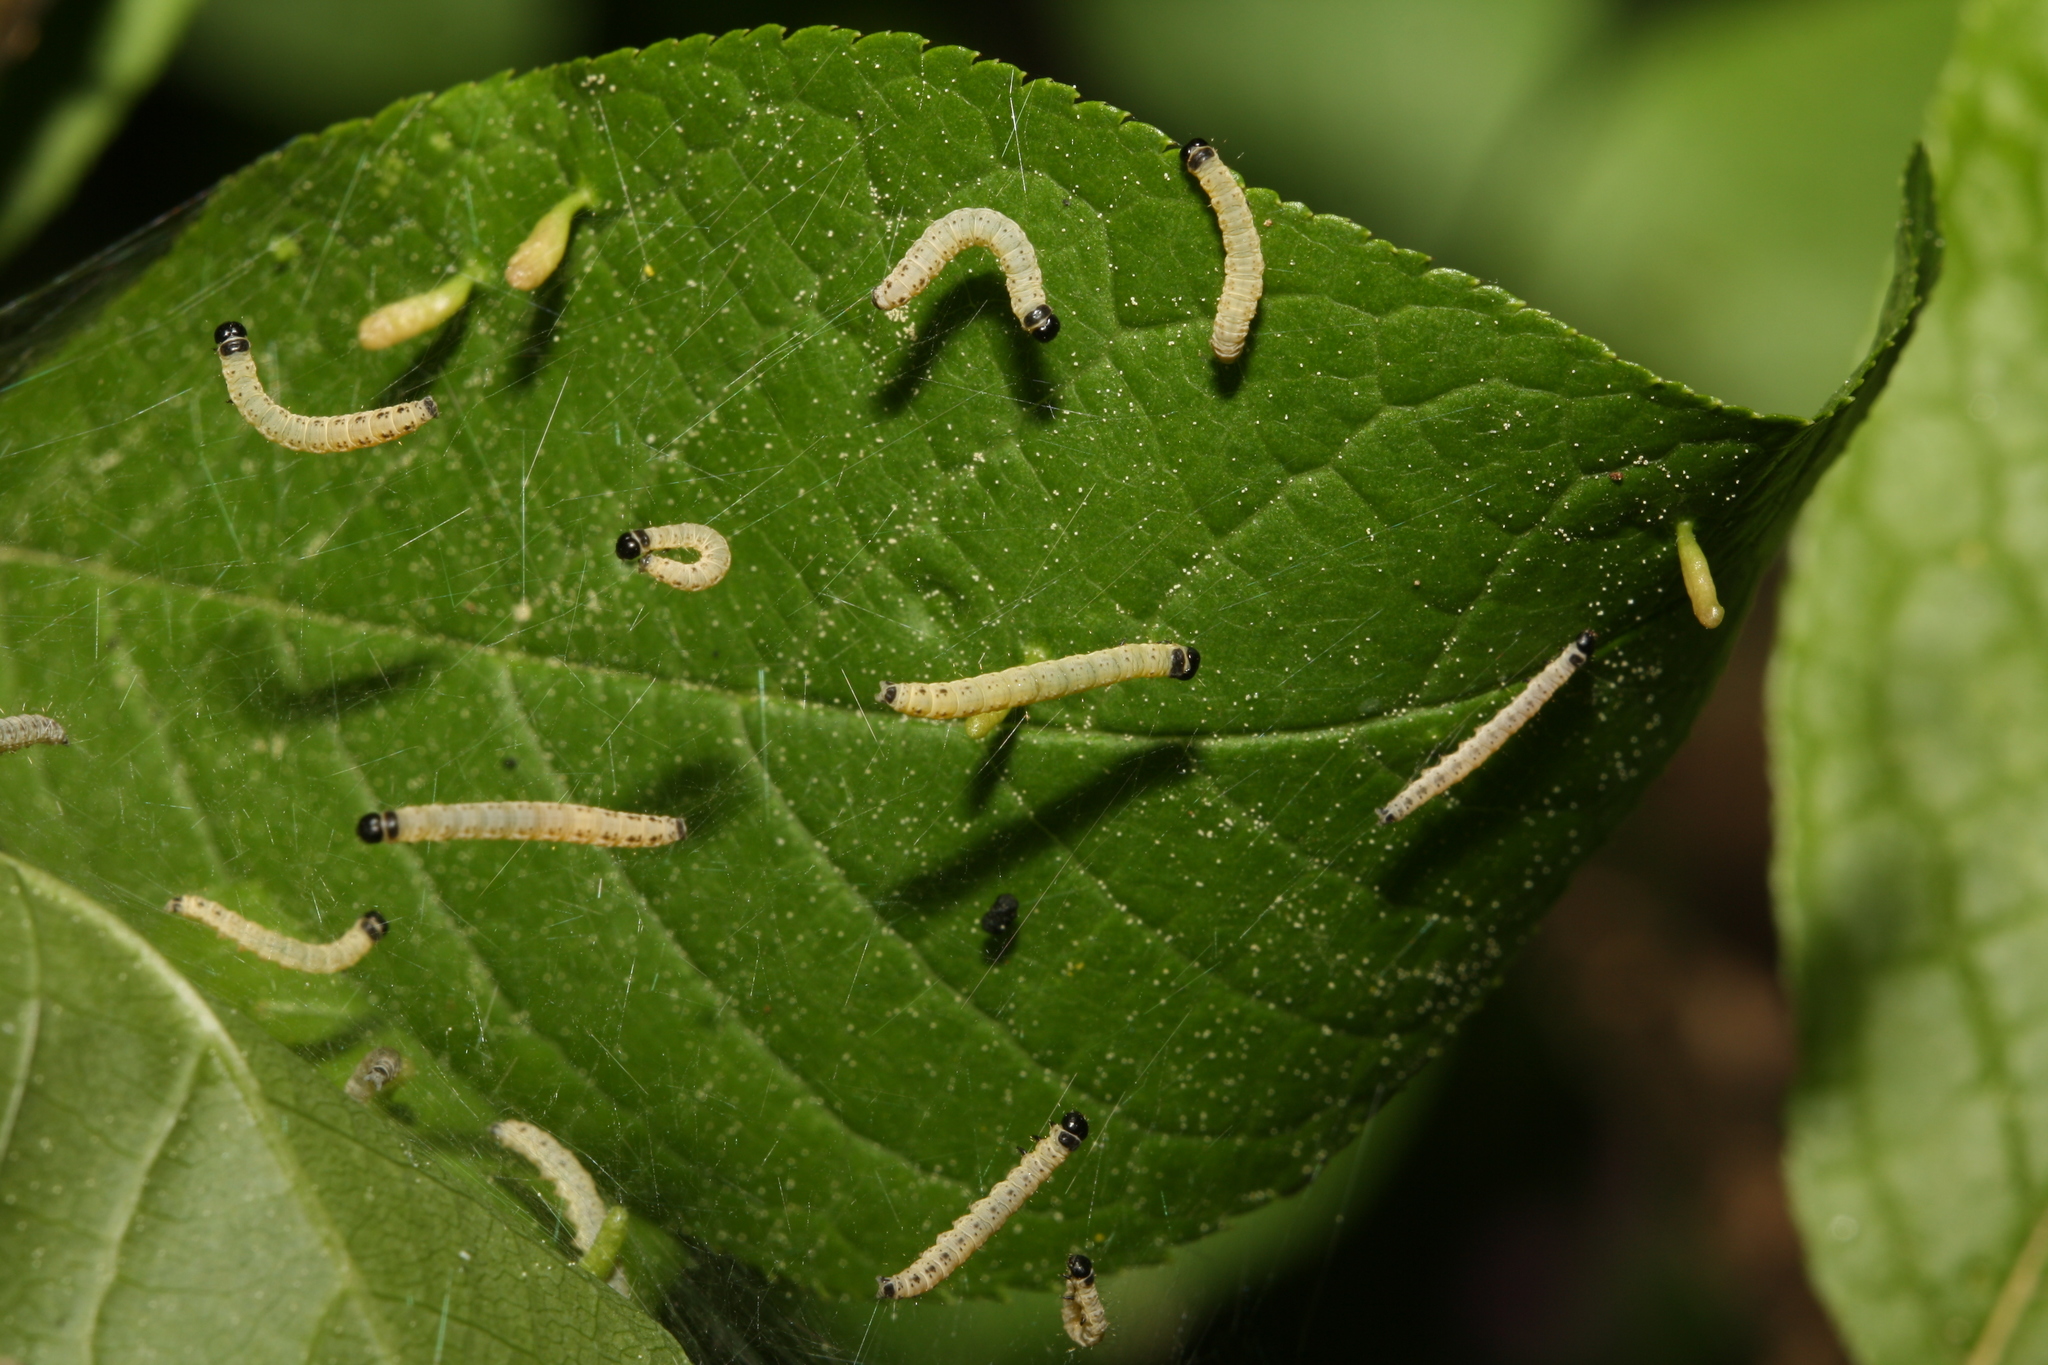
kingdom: Animalia
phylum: Arthropoda
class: Insecta
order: Lepidoptera
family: Yponomeutidae
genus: Yponomeuta
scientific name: Yponomeuta evonymella
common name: Bird-cherry ermine
